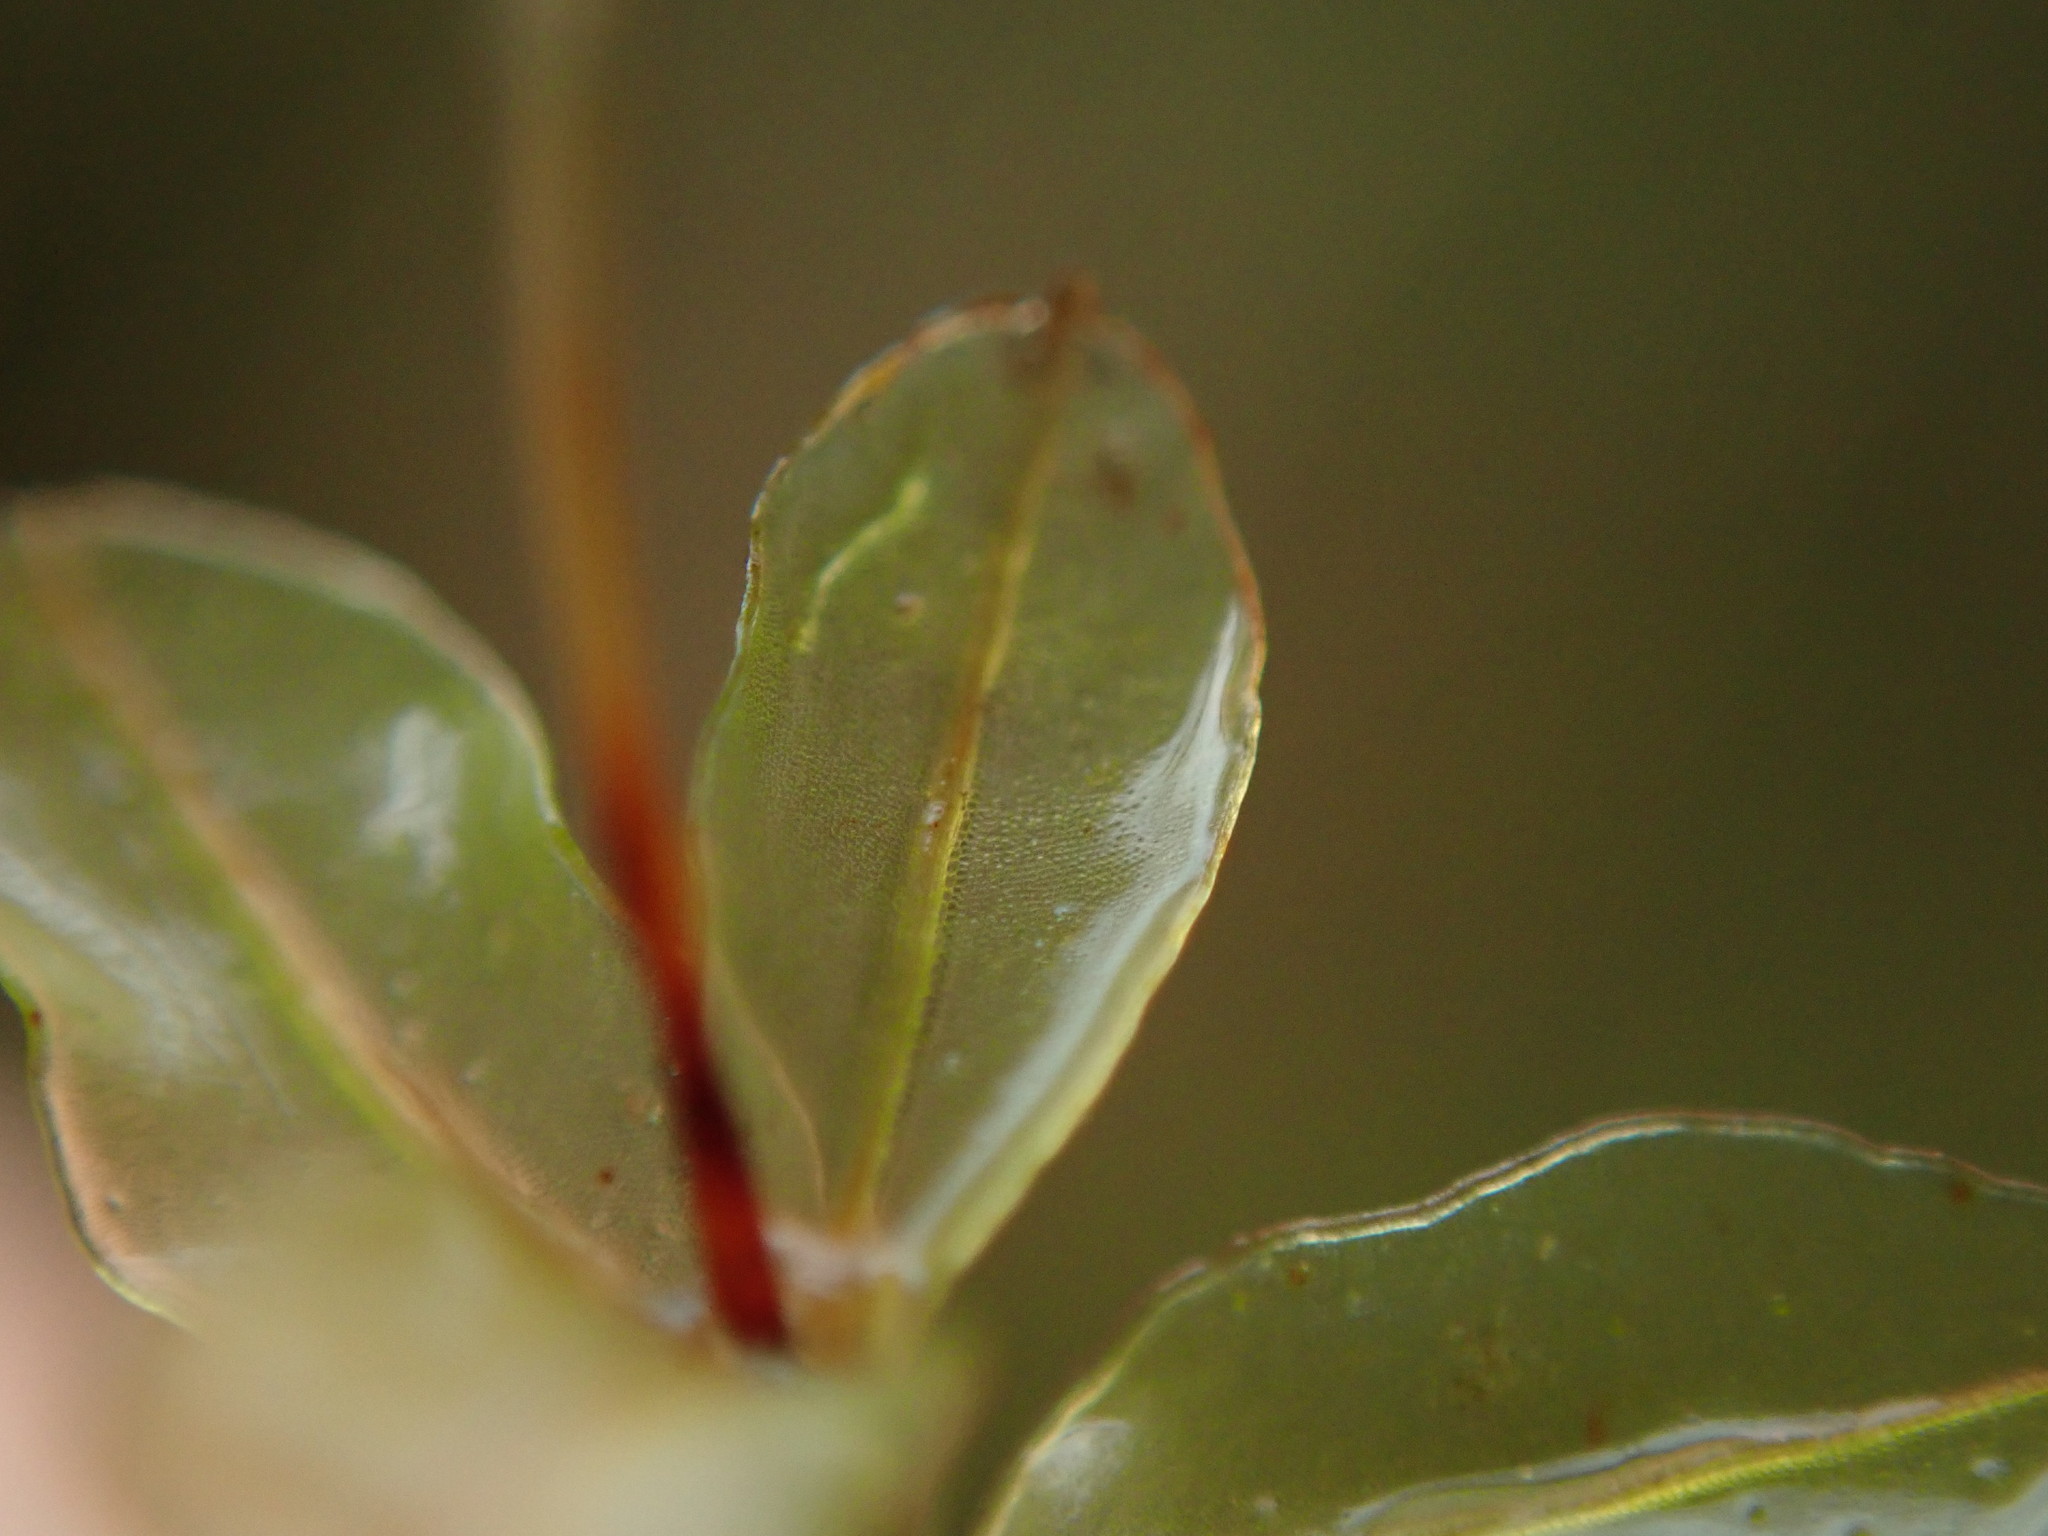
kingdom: Plantae
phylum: Bryophyta
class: Bryopsida
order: Bryales
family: Mniaceae
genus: Rhizomnium
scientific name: Rhizomnium glabrescens
